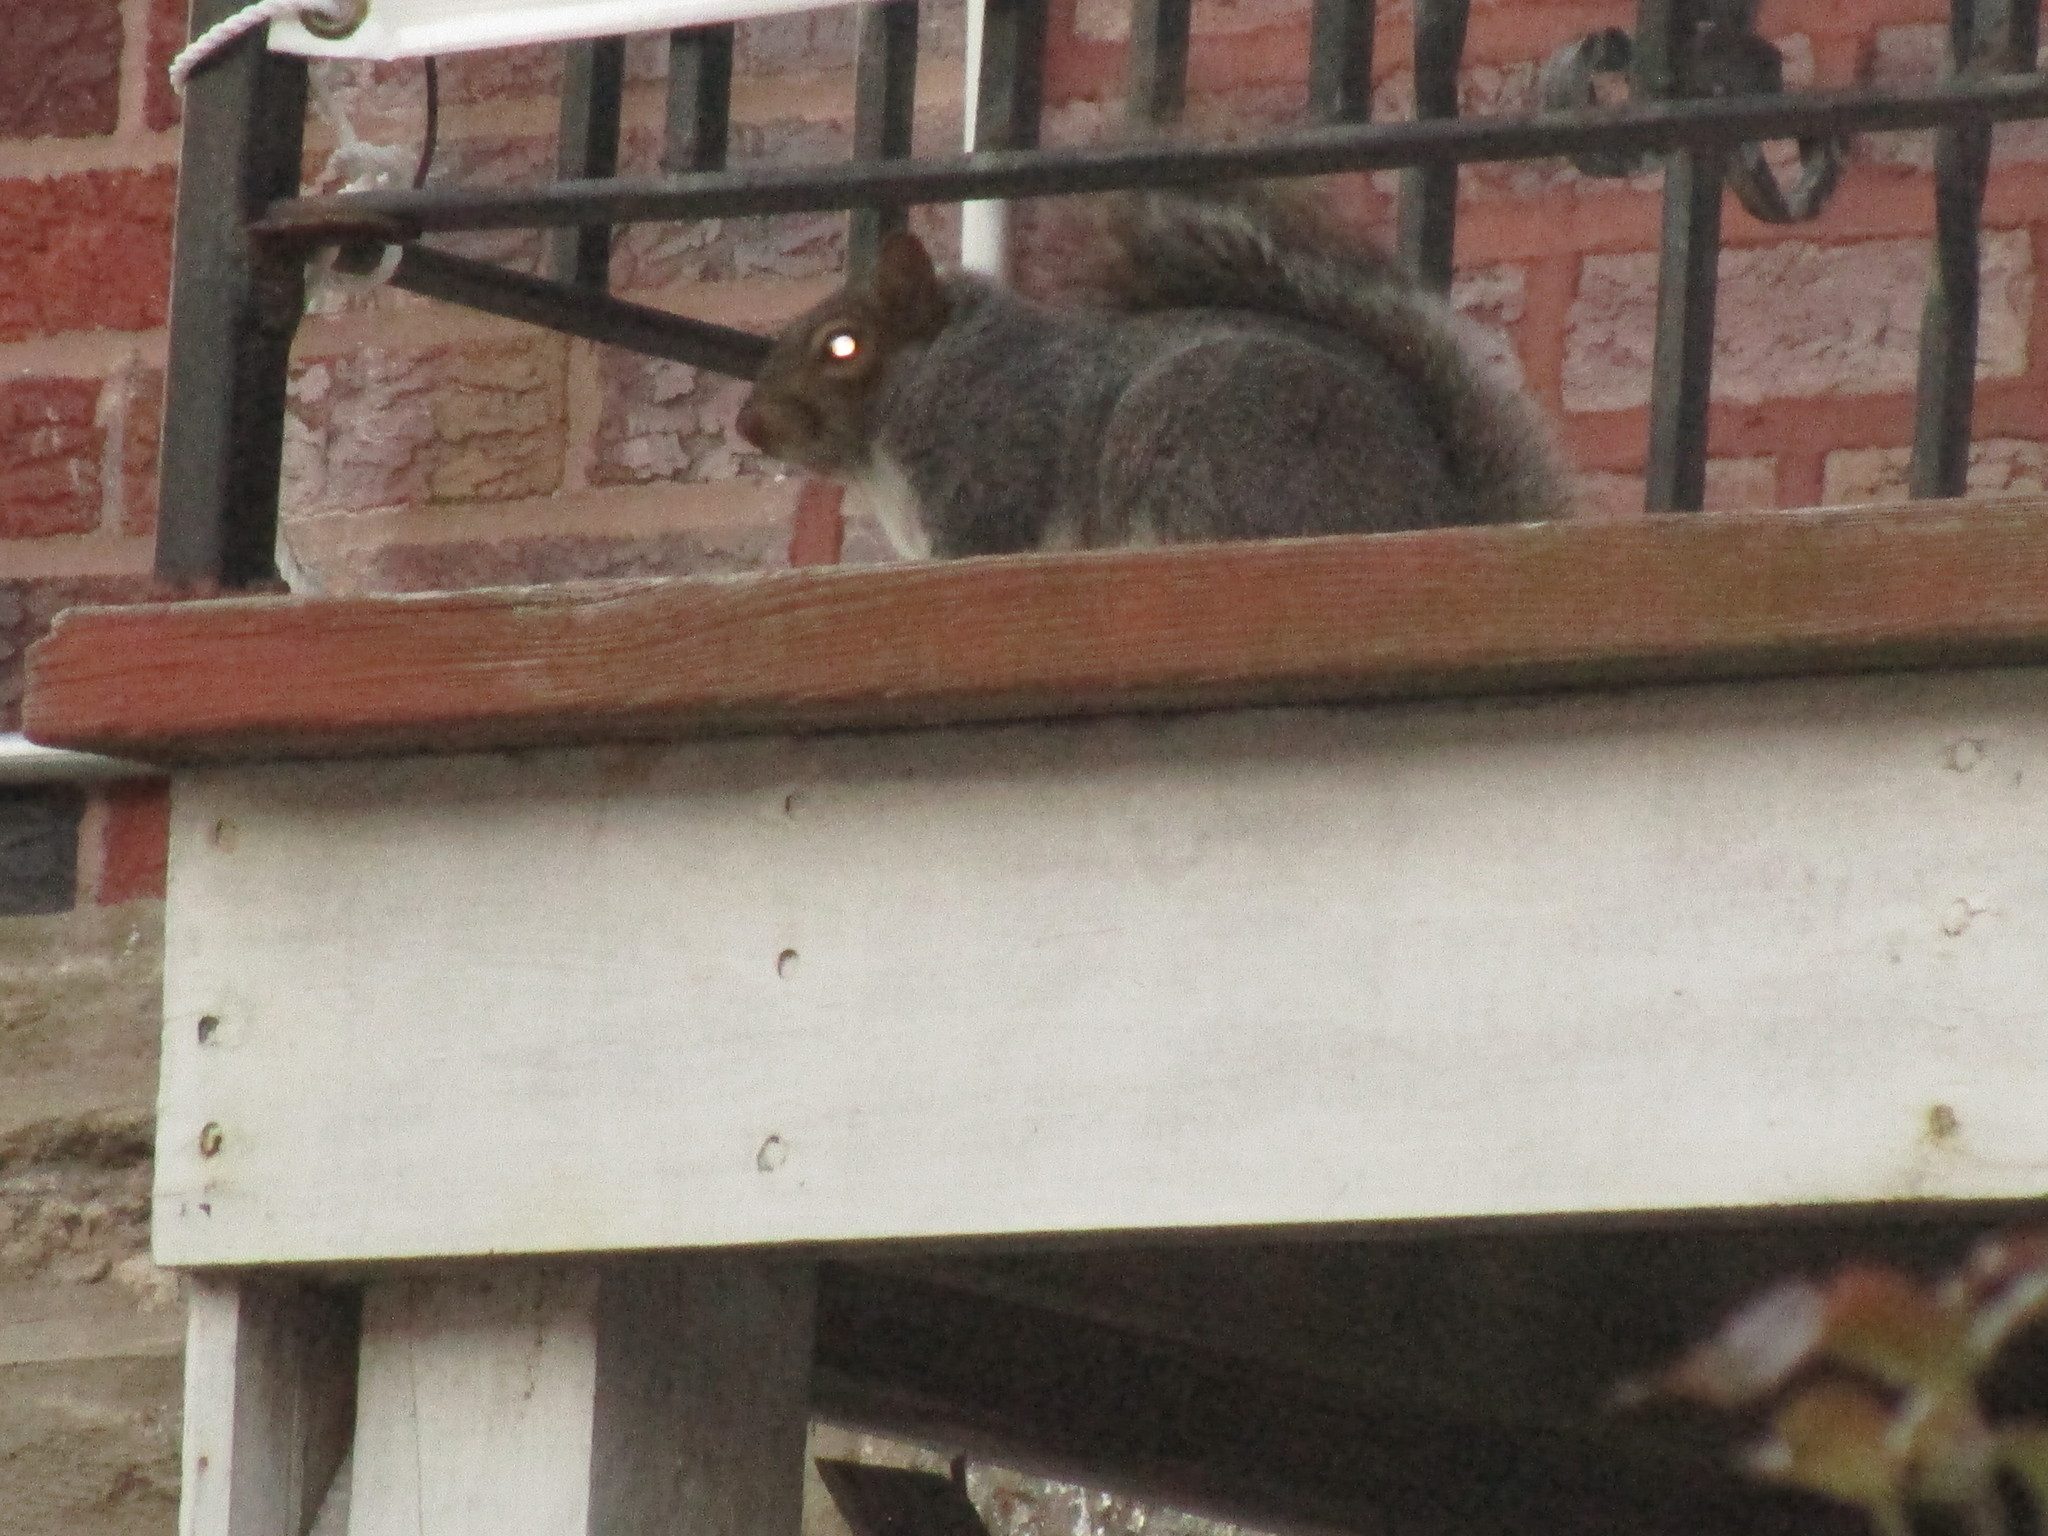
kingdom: Animalia
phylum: Chordata
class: Mammalia
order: Rodentia
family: Sciuridae
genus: Sciurus
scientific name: Sciurus carolinensis
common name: Eastern gray squirrel
